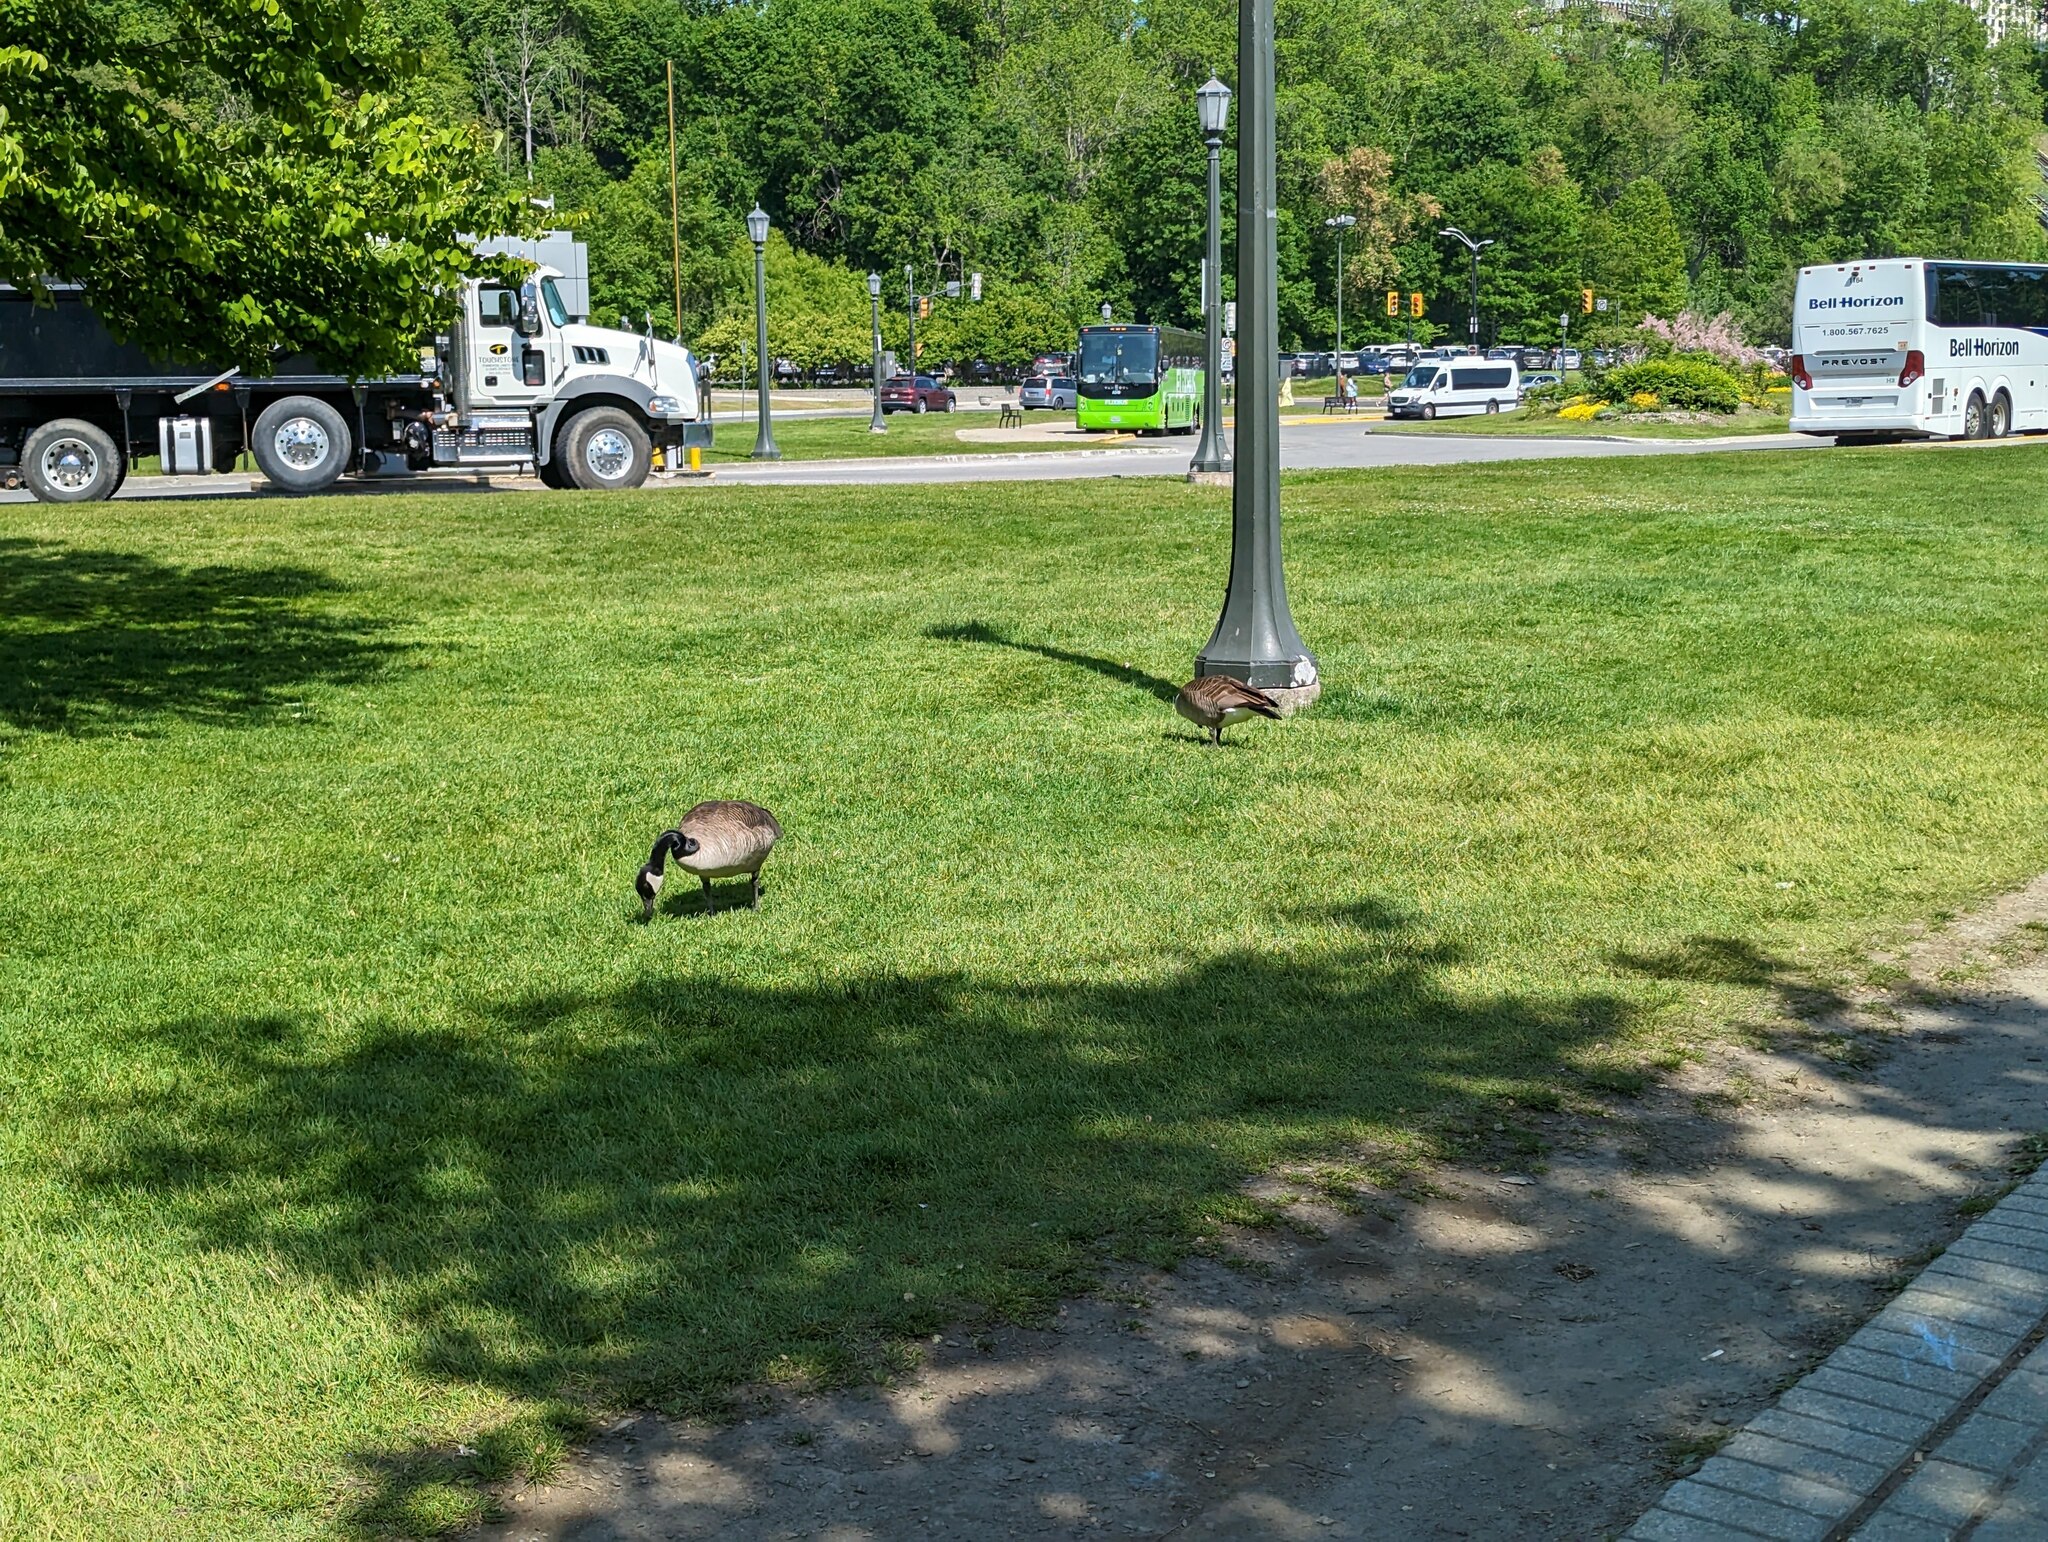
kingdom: Animalia
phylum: Chordata
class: Aves
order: Anseriformes
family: Anatidae
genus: Branta
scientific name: Branta canadensis
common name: Canada goose
